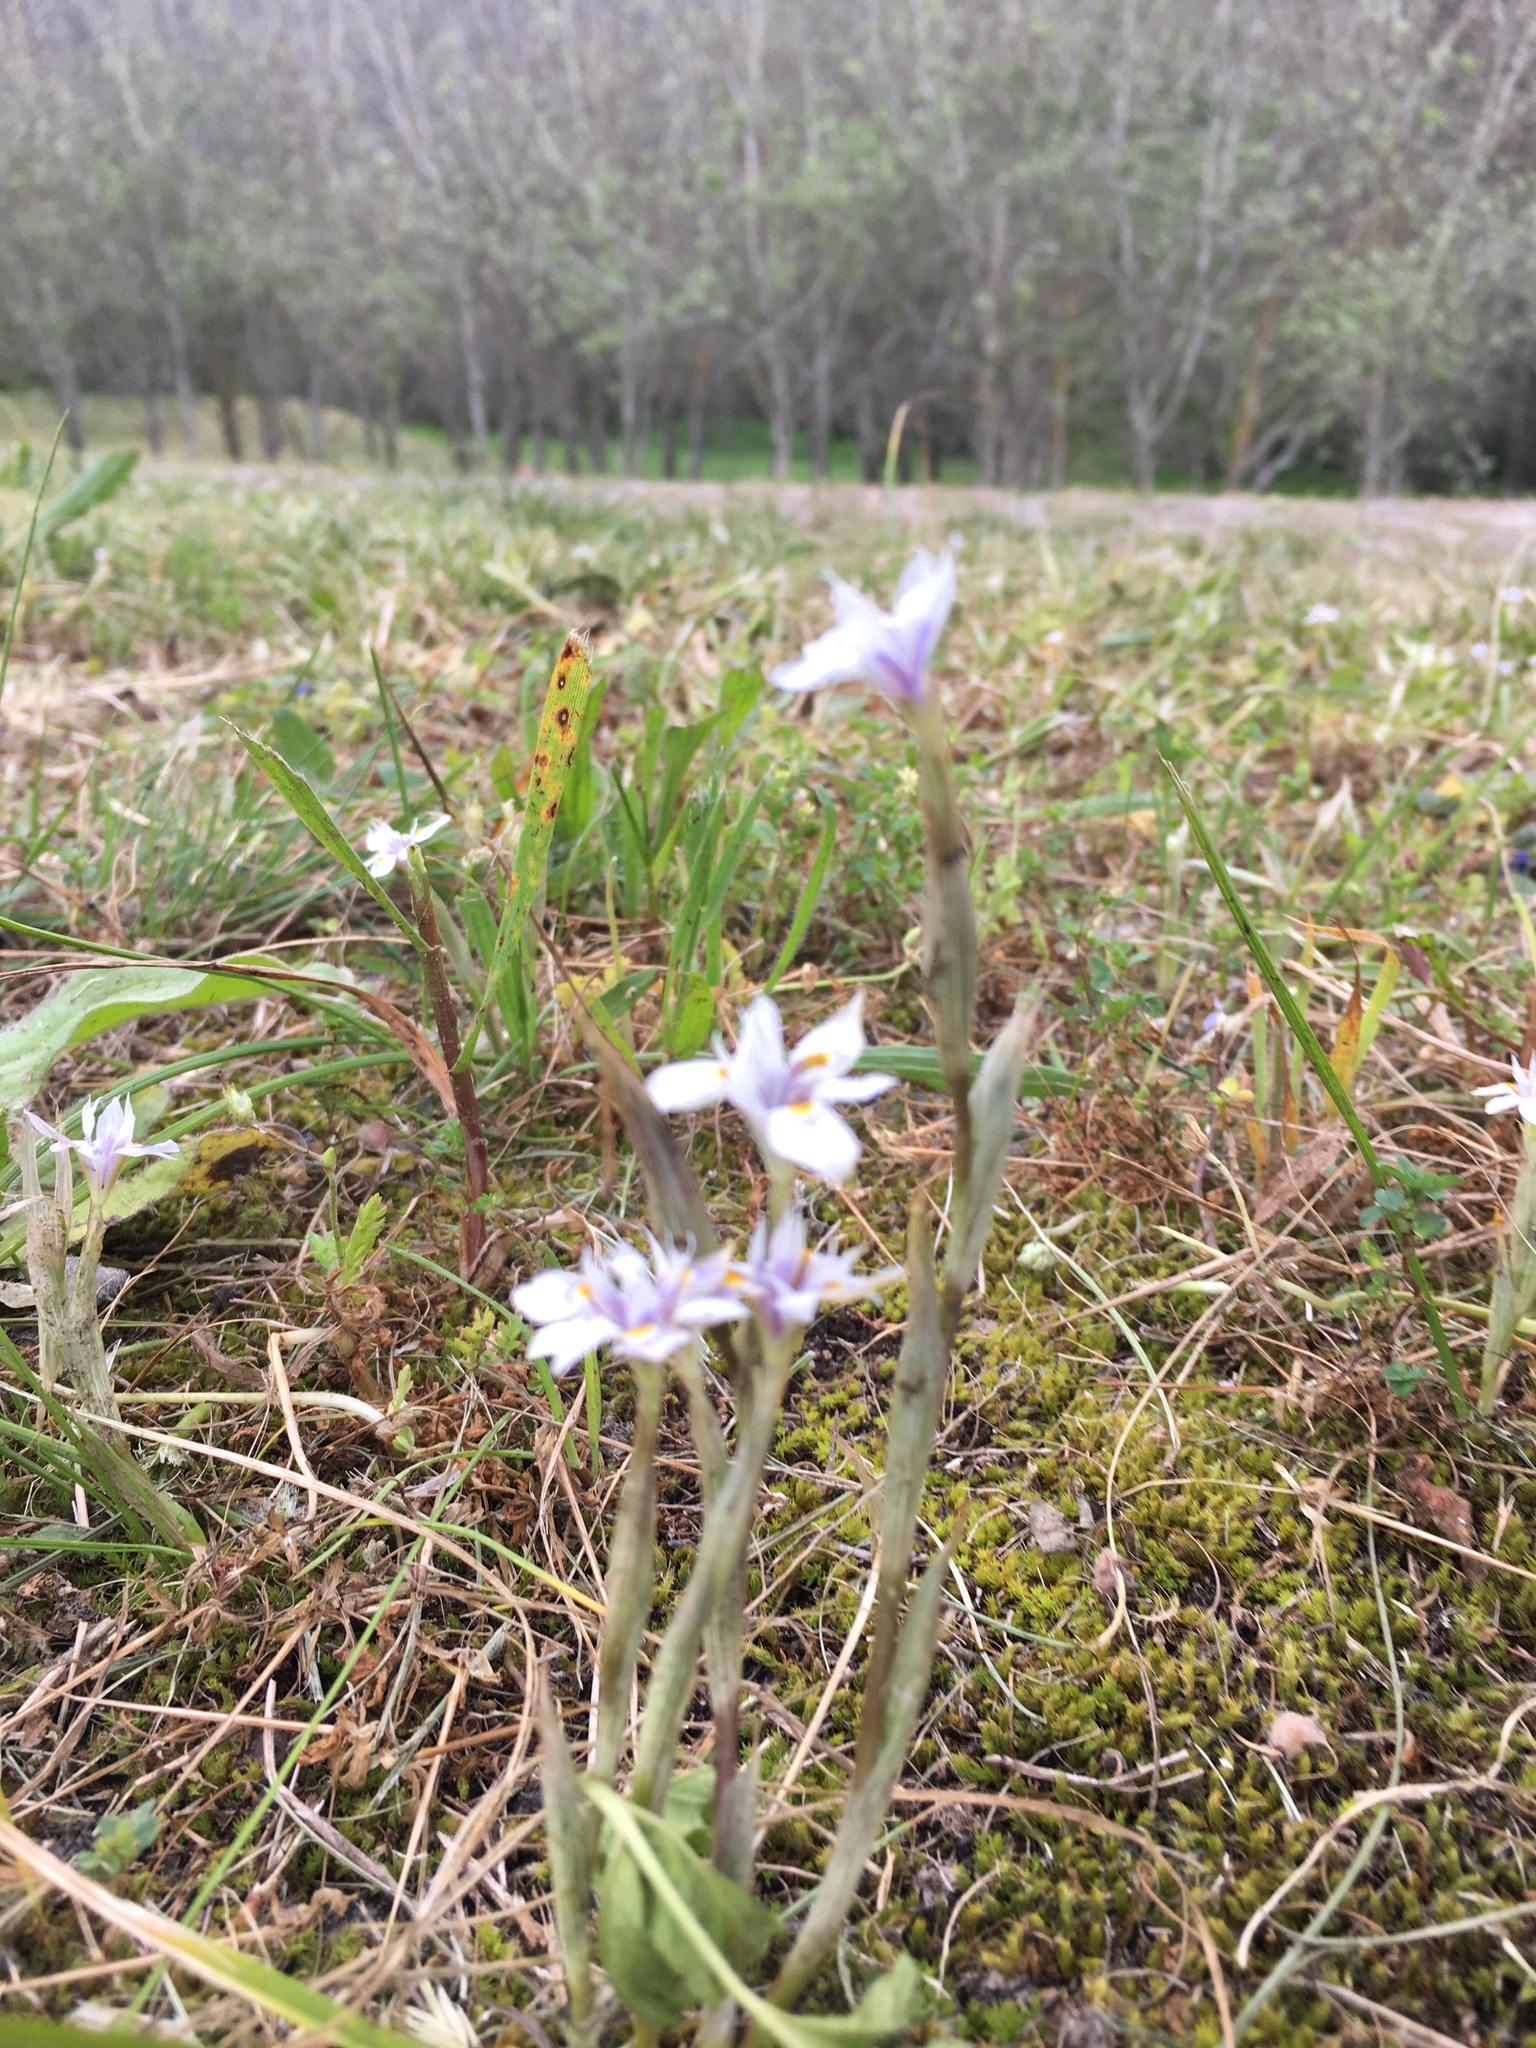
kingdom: Plantae
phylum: Tracheophyta
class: Liliopsida
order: Asparagales
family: Iridaceae
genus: Moraea
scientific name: Moraea setifolia
